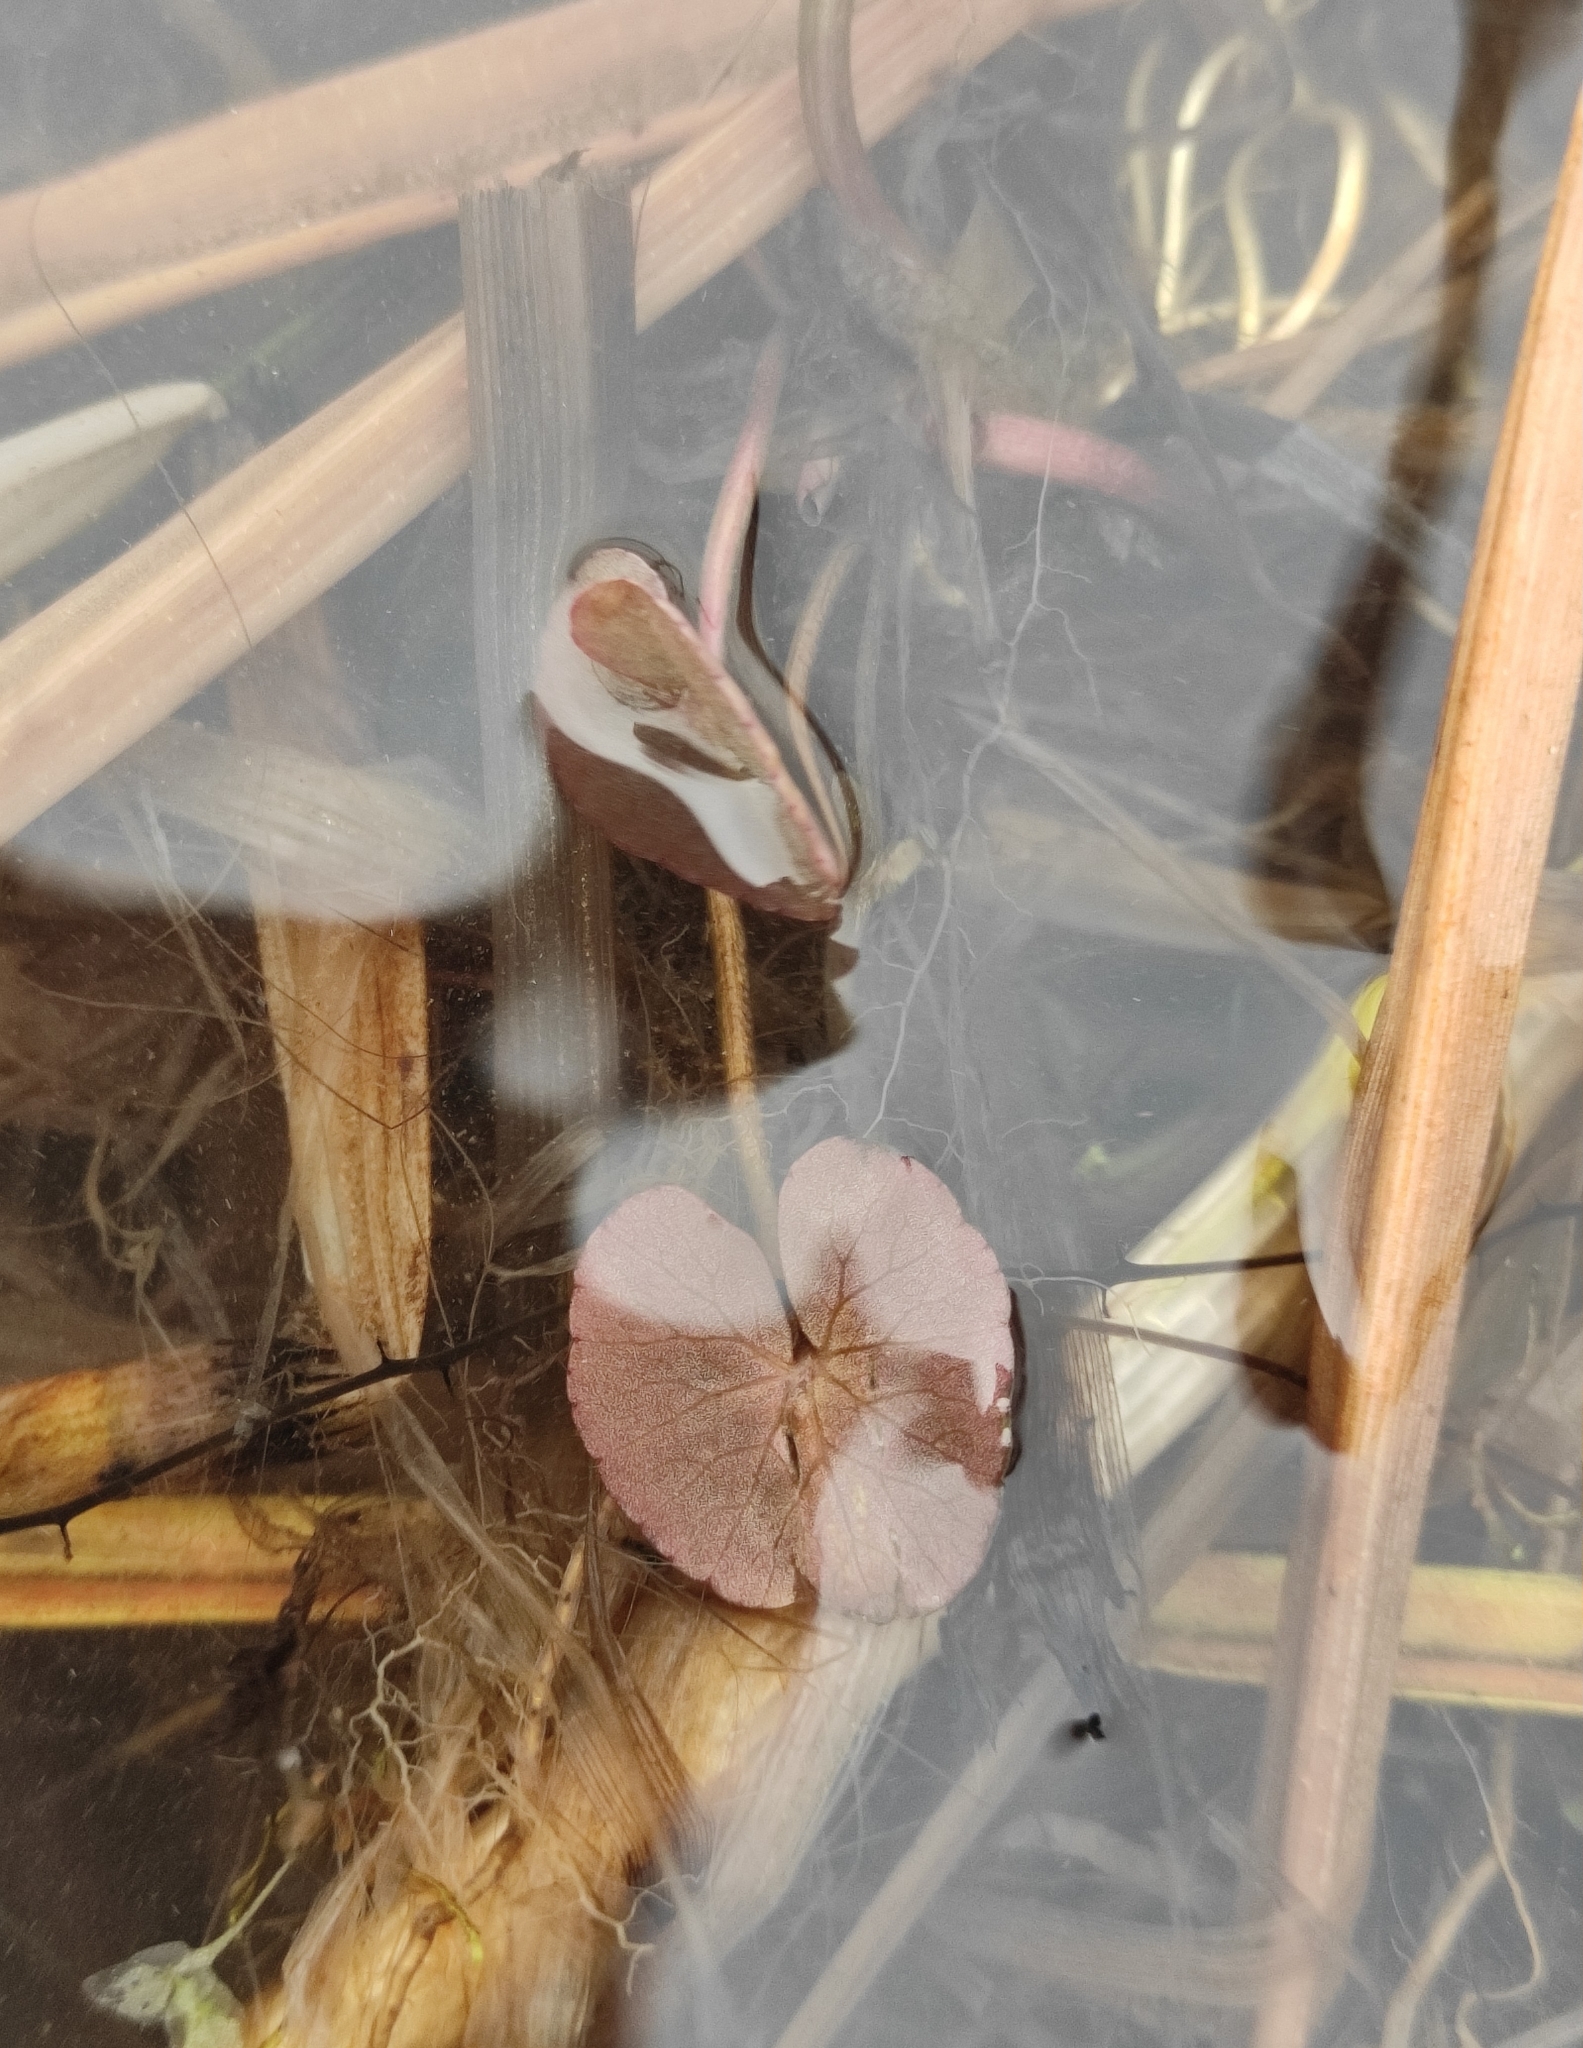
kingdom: Plantae
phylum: Tracheophyta
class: Magnoliopsida
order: Asterales
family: Menyanthaceae
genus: Nymphoides
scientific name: Nymphoides peltata
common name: Fringed water-lily
